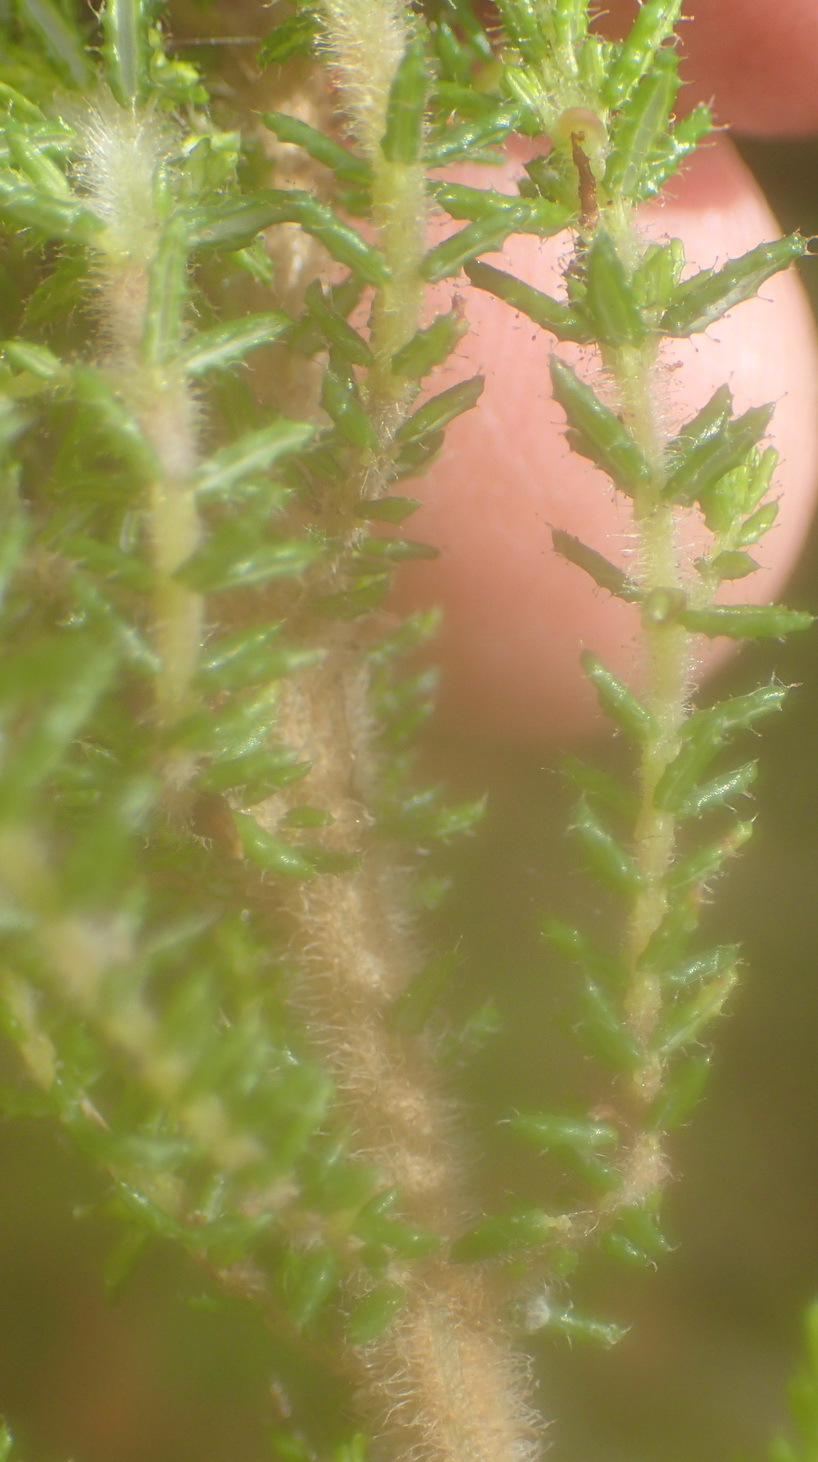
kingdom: Plantae
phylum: Tracheophyta
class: Magnoliopsida
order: Ericales
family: Ericaceae
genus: Erica
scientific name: Erica scabriuscula
